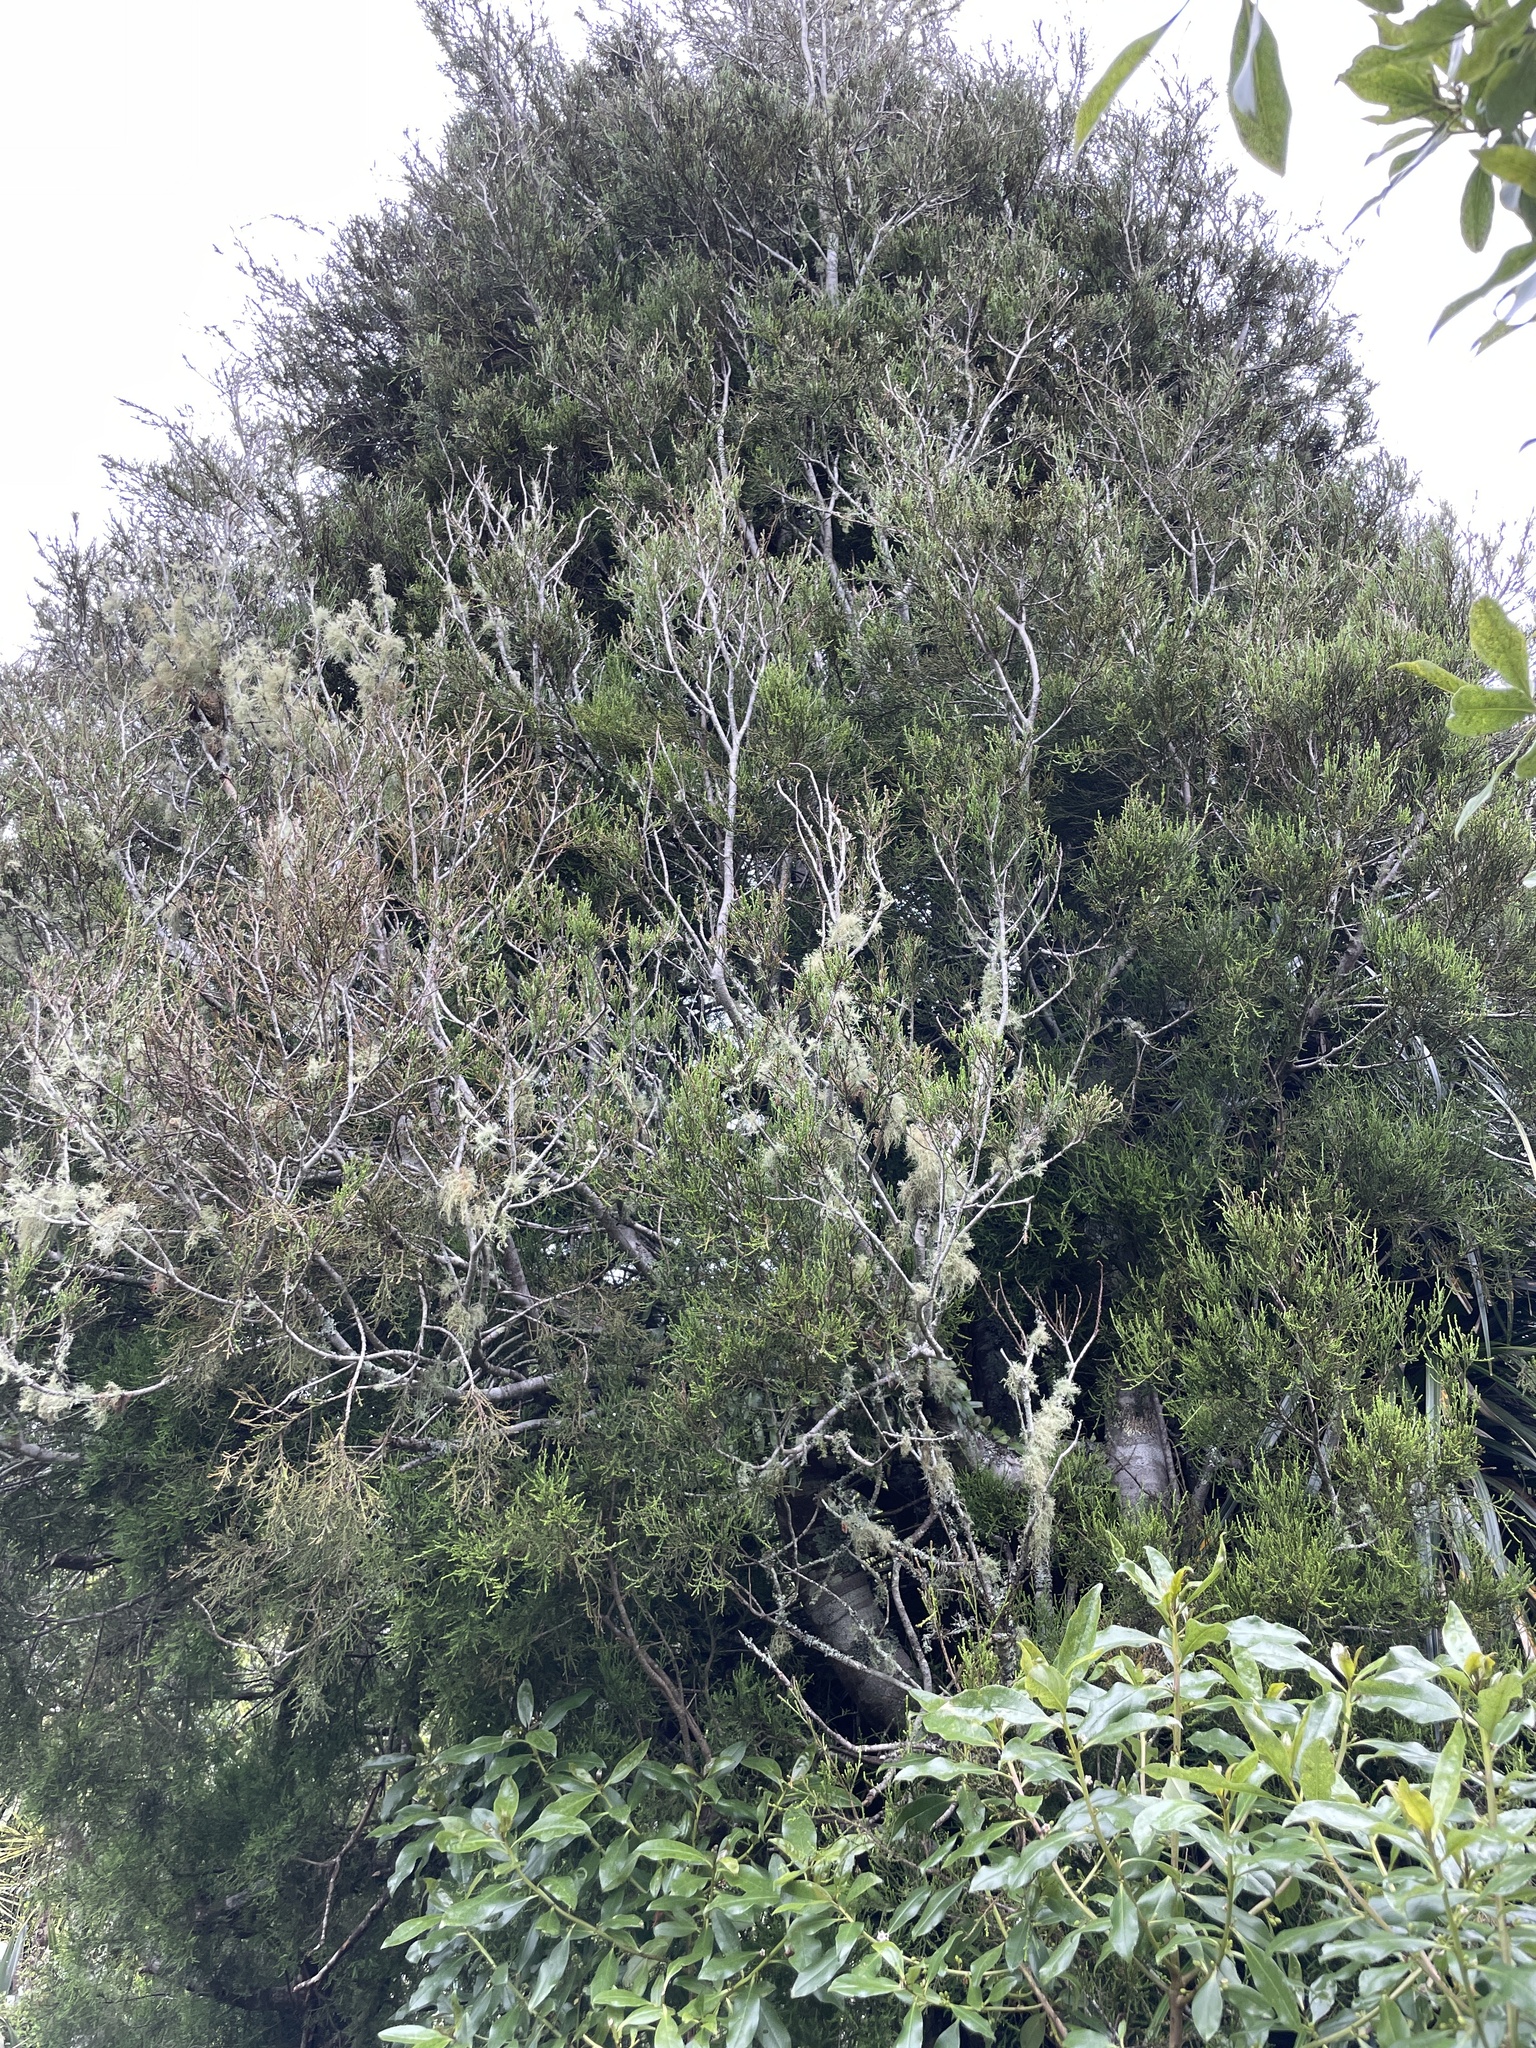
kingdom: Plantae
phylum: Tracheophyta
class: Pinopsida
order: Pinales
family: Podocarpaceae
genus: Dacrycarpus
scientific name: Dacrycarpus dacrydioides
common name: White pine
